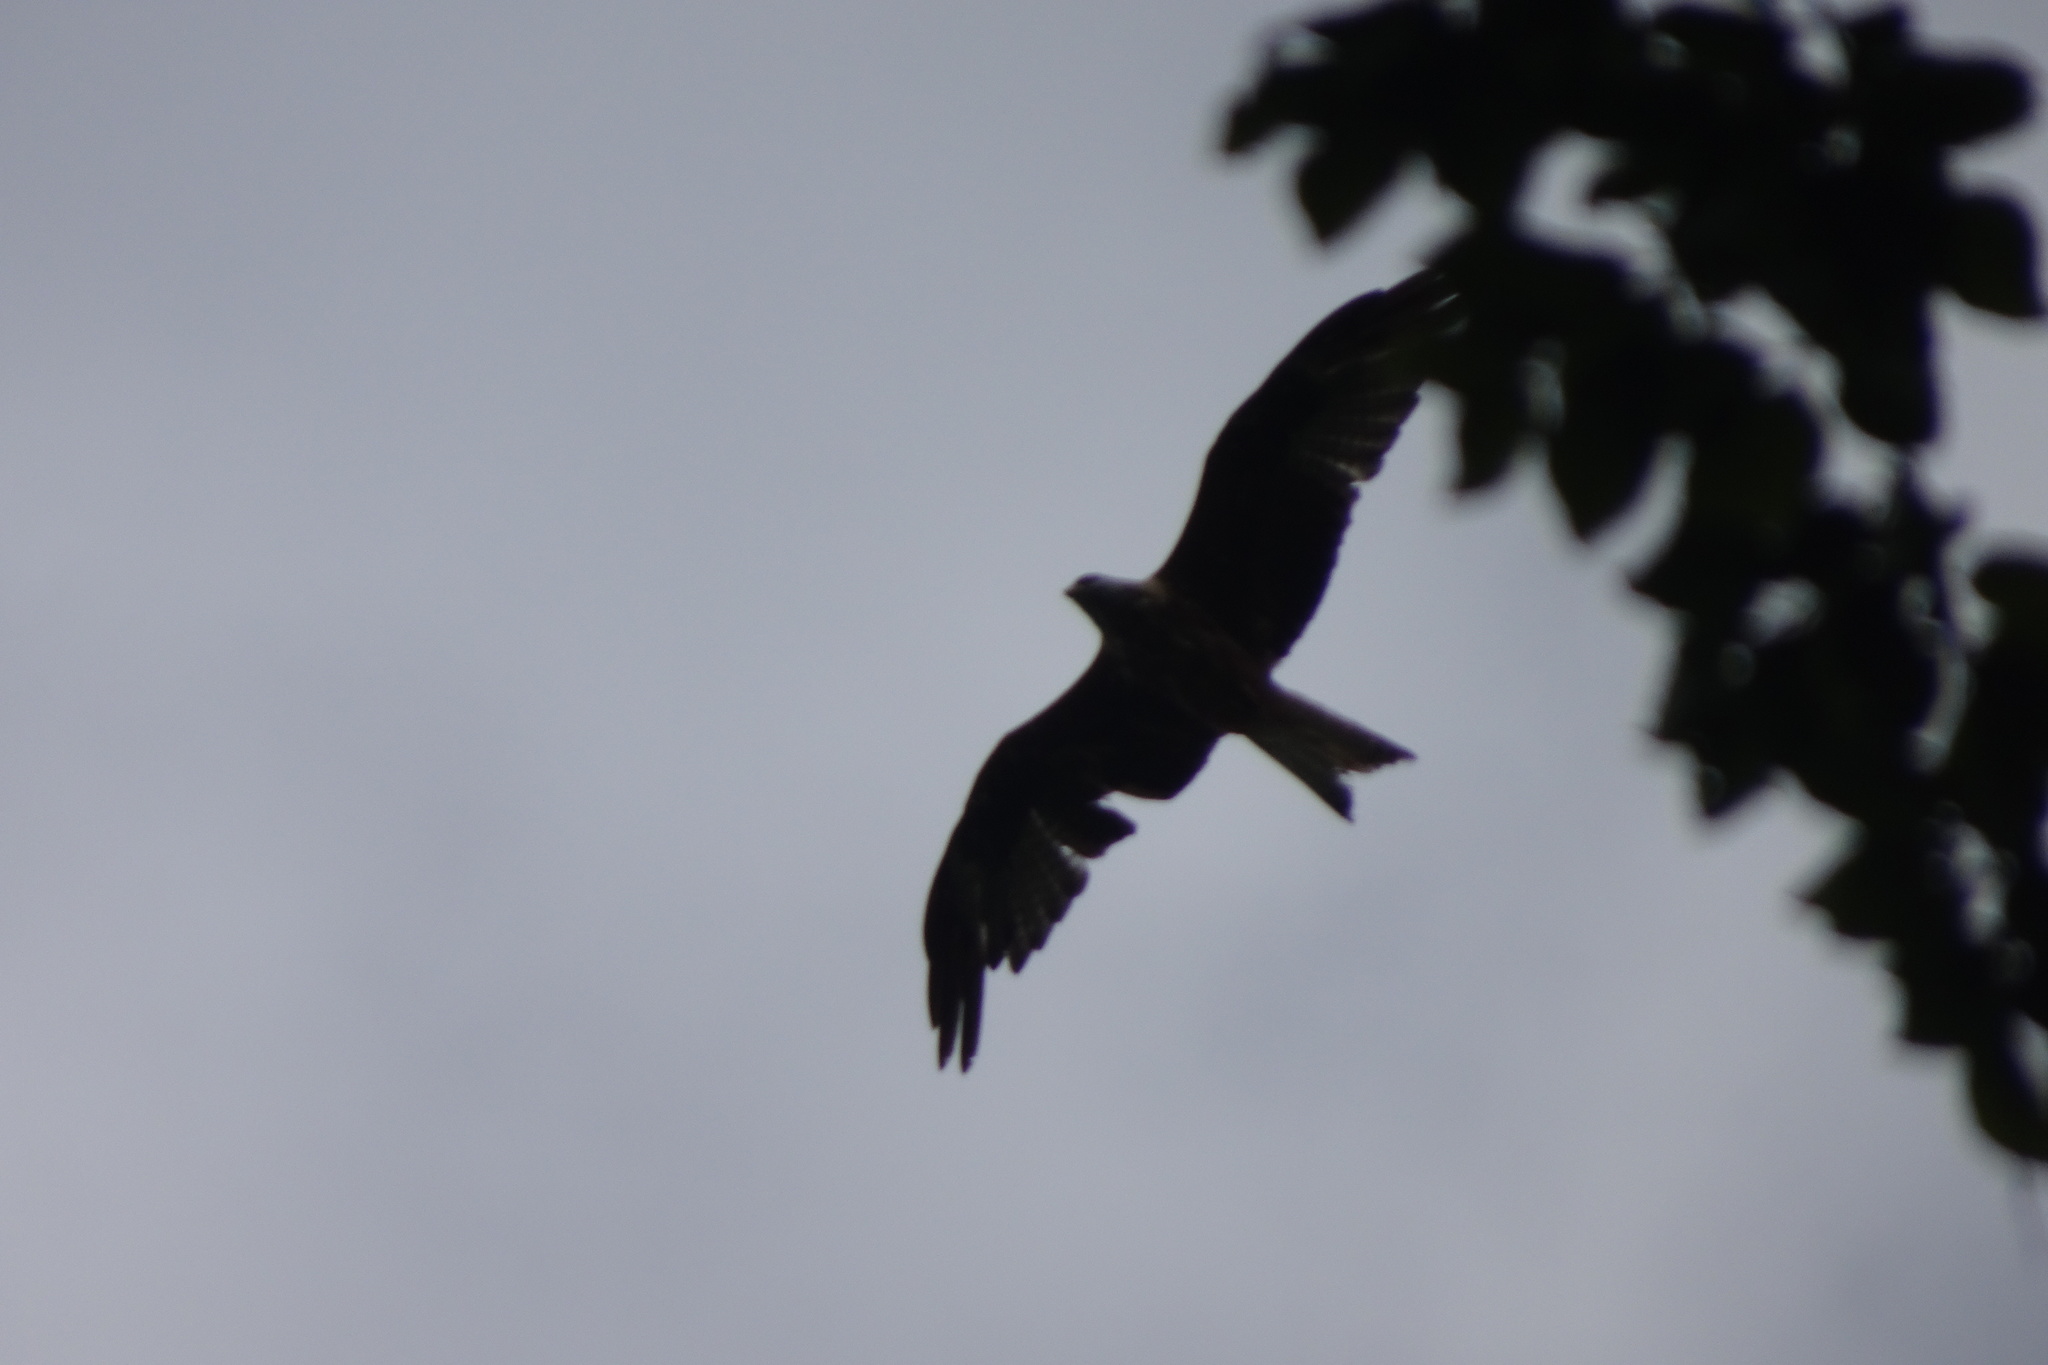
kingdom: Animalia
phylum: Chordata
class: Aves
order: Accipitriformes
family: Accipitridae
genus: Milvus
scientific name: Milvus milvus
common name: Red kite
